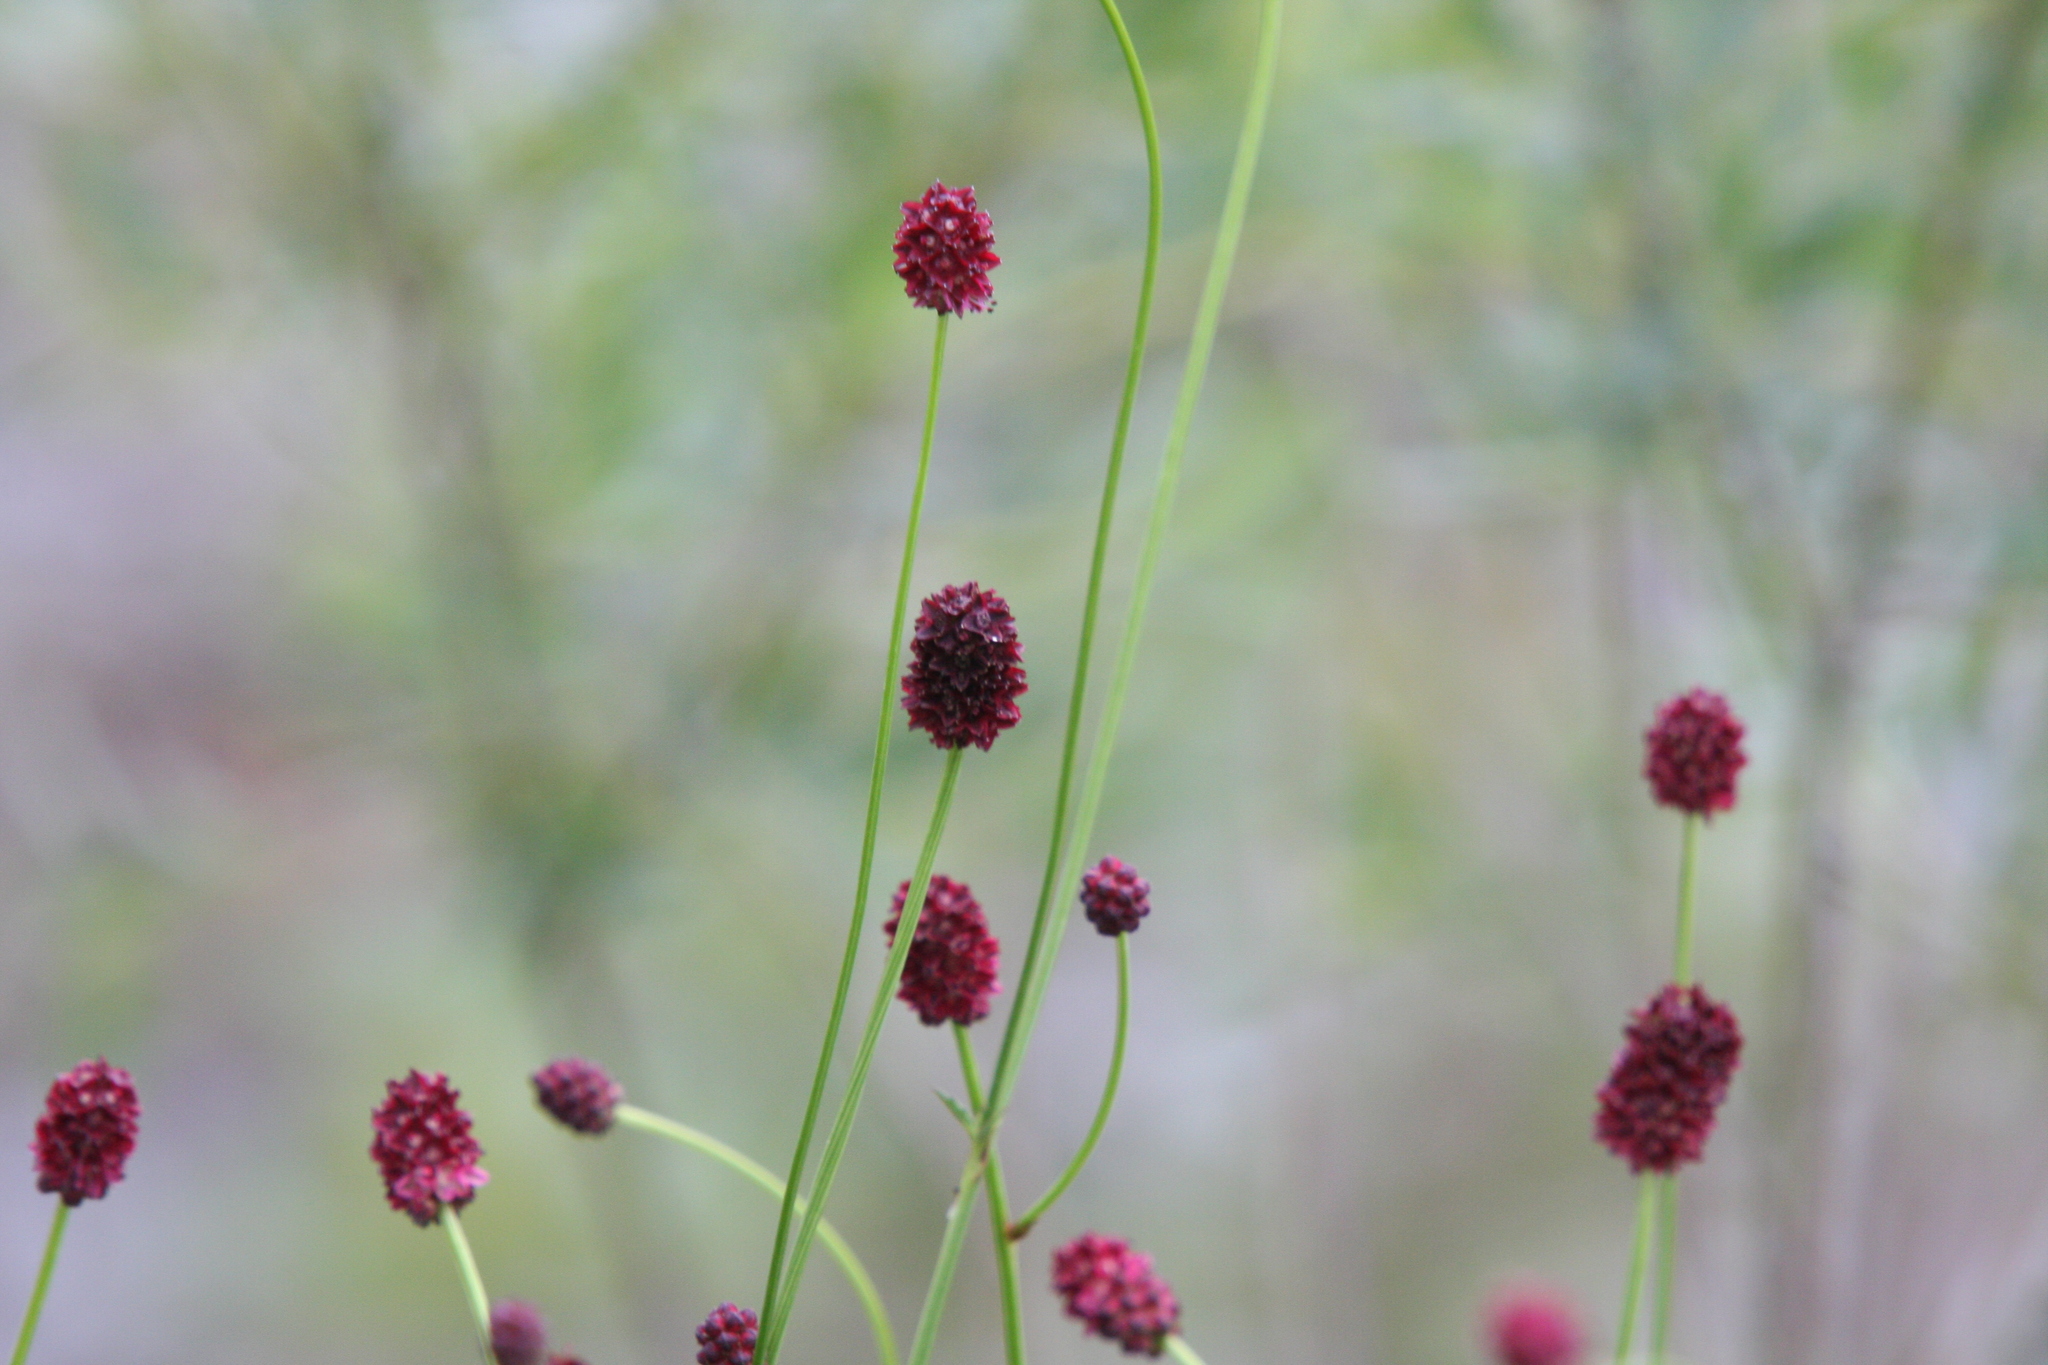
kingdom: Plantae
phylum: Tracheophyta
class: Magnoliopsida
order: Rosales
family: Rosaceae
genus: Sanguisorba
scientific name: Sanguisorba officinalis
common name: Great burnet
